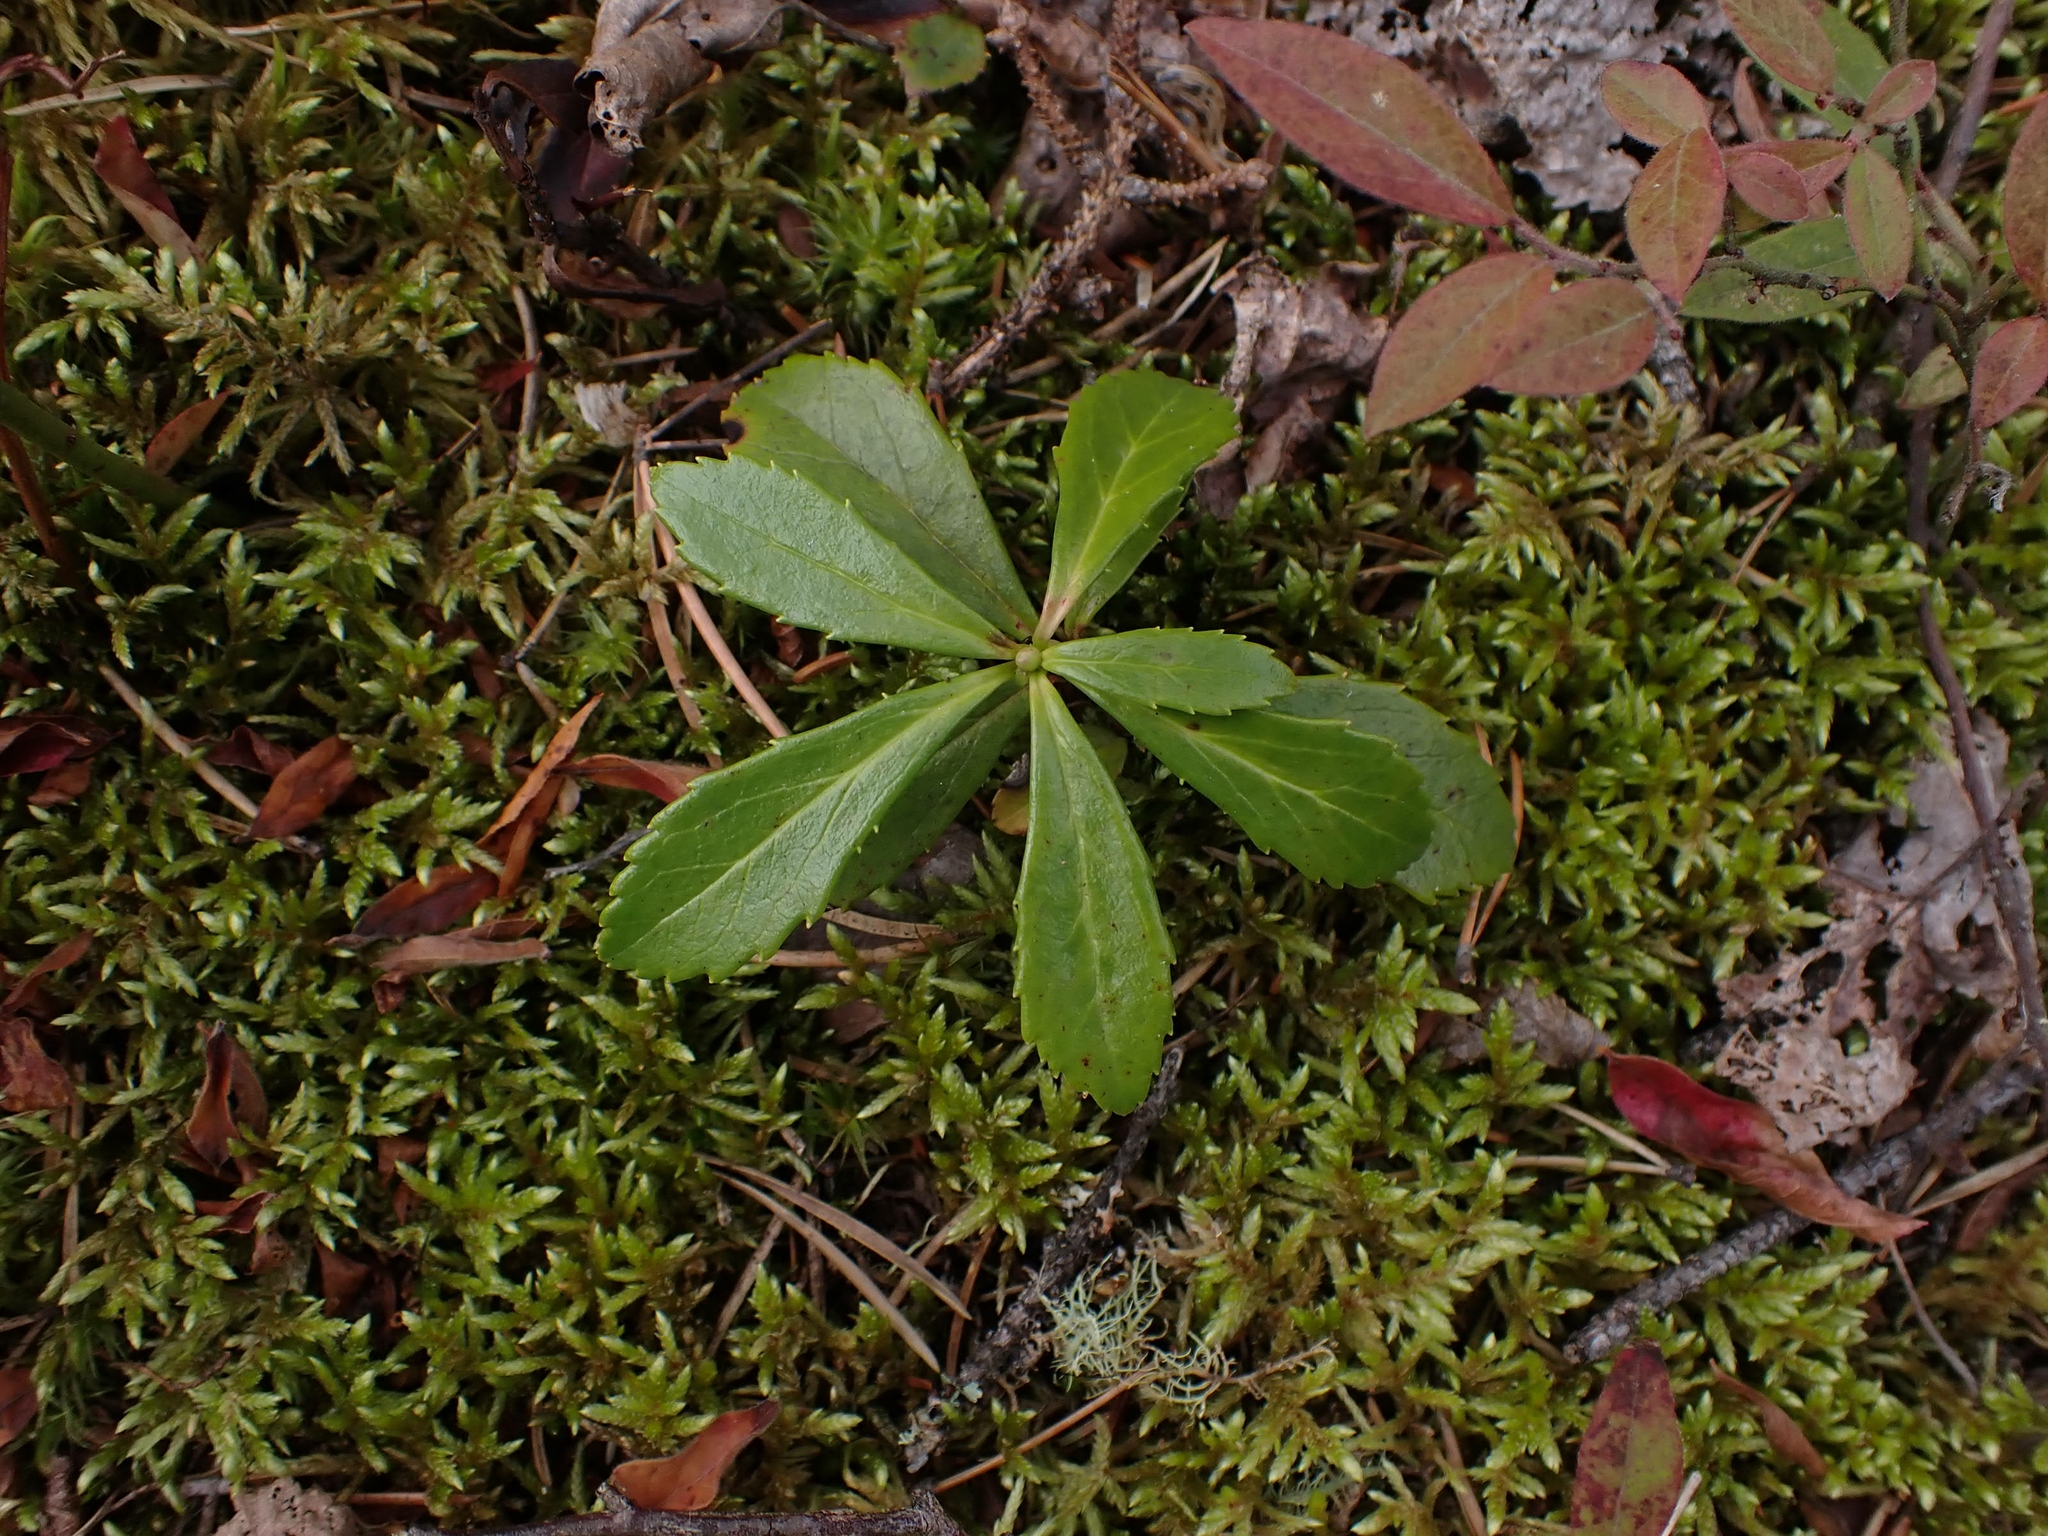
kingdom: Plantae
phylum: Tracheophyta
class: Magnoliopsida
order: Ericales
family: Ericaceae
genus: Chimaphila
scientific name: Chimaphila umbellata
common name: Pipsissewa
